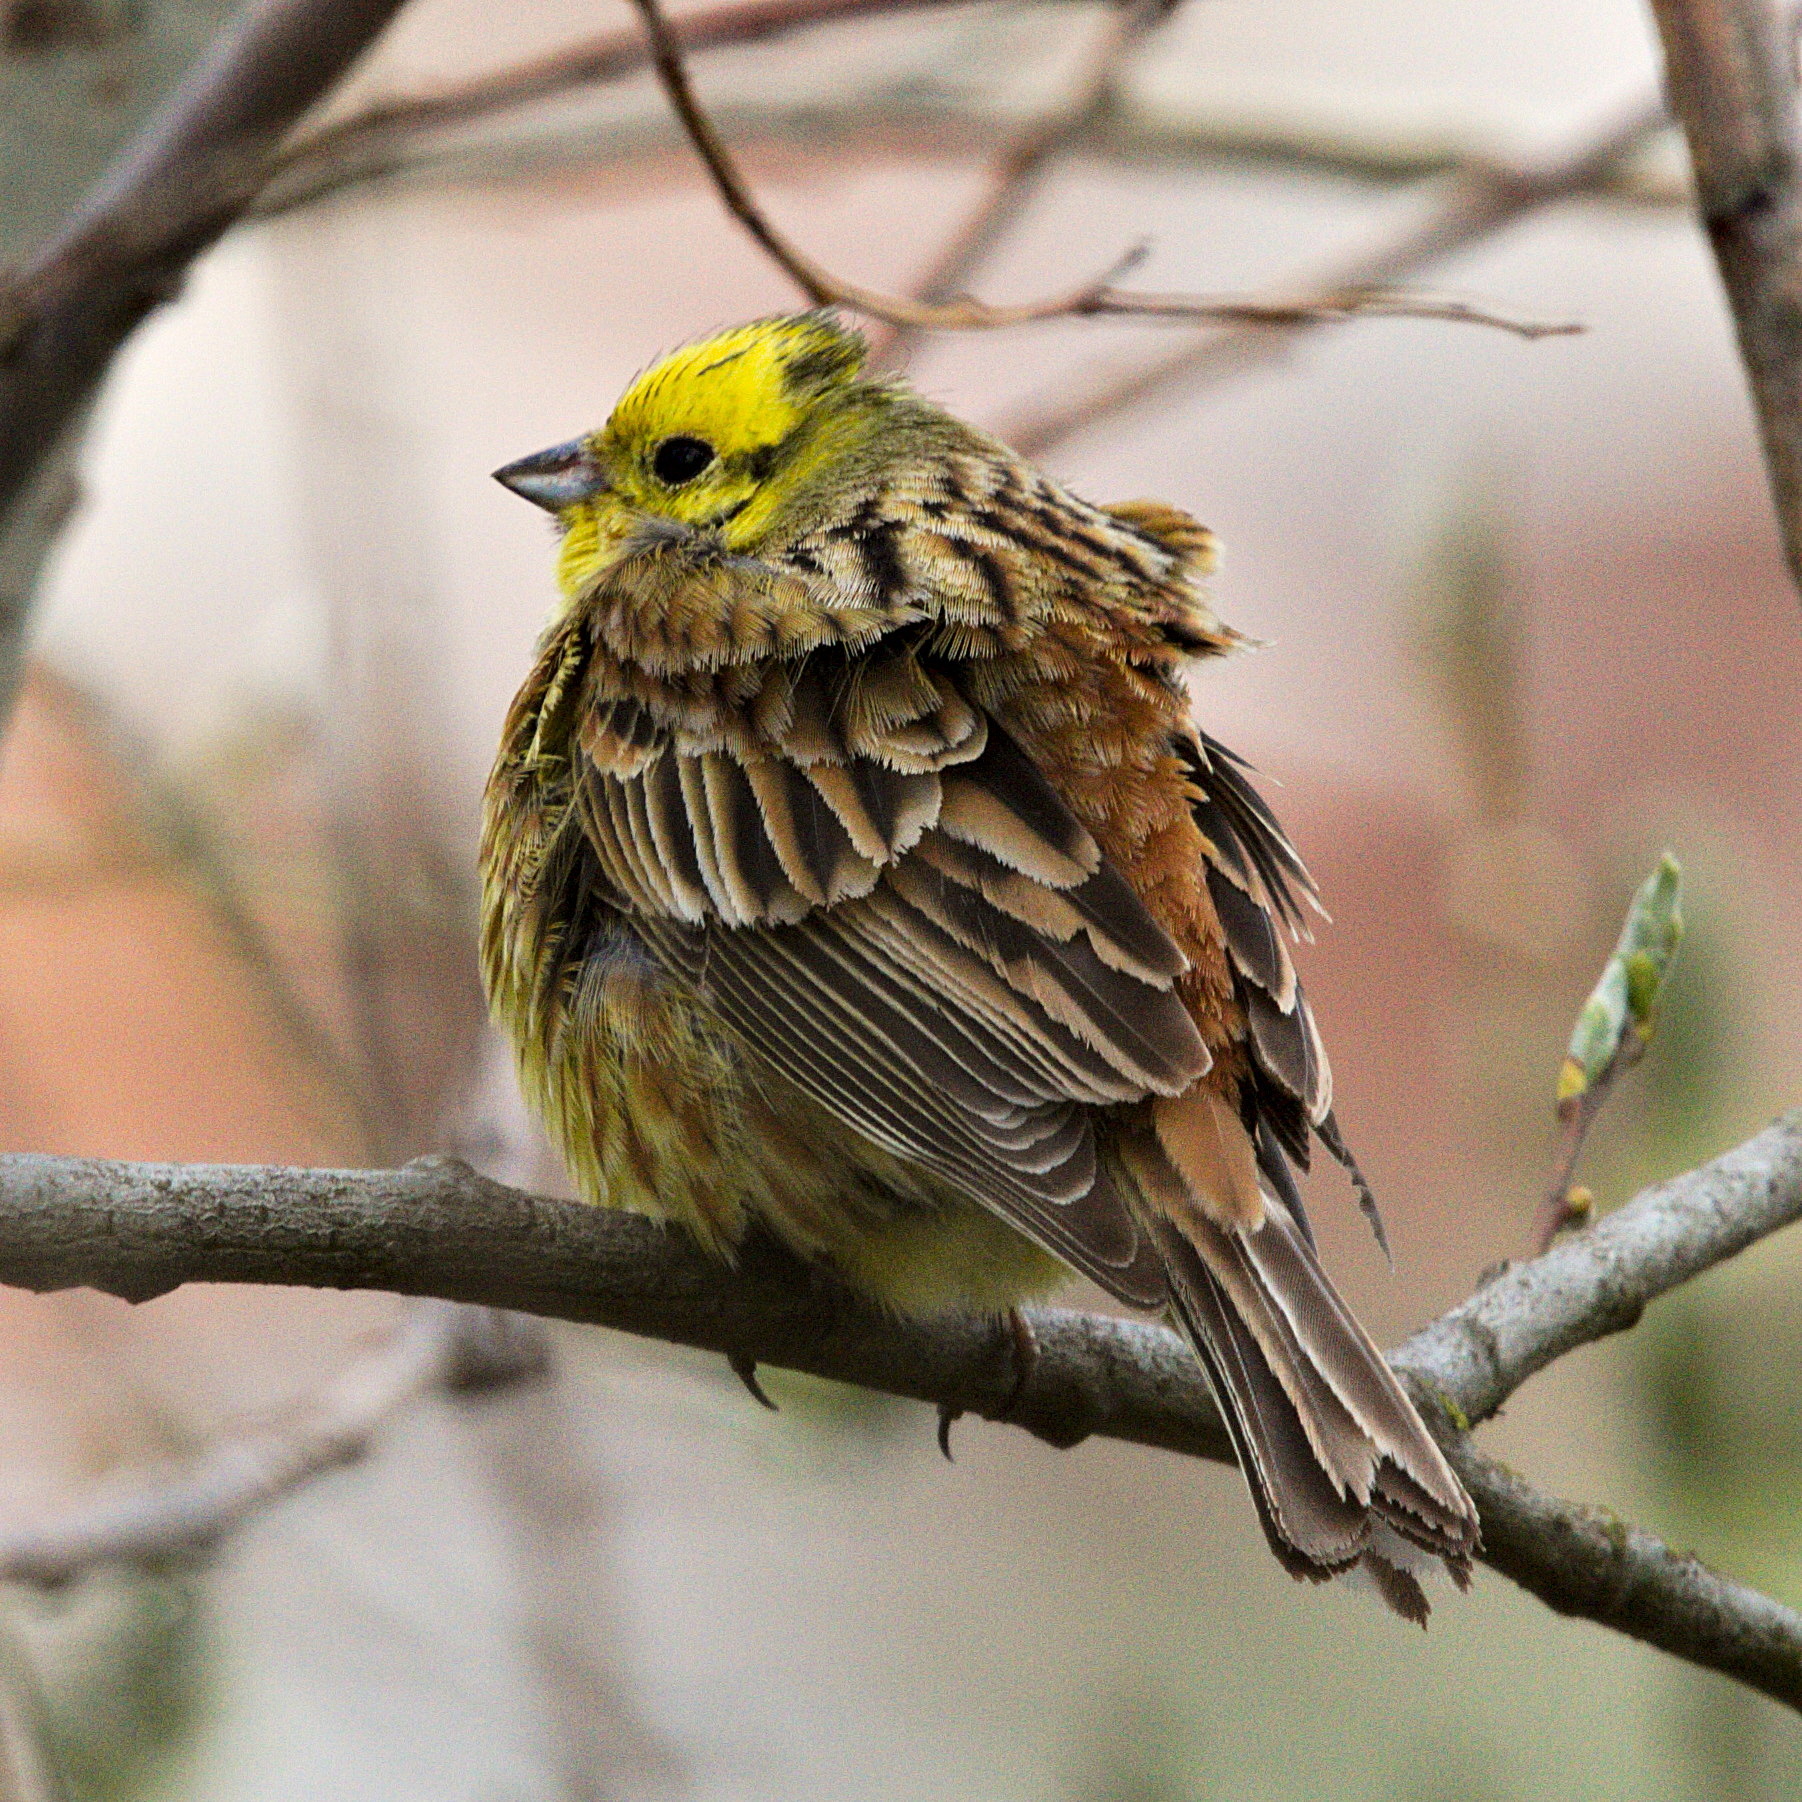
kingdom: Animalia
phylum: Chordata
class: Aves
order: Passeriformes
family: Emberizidae
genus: Emberiza
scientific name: Emberiza citrinella
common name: Yellowhammer
